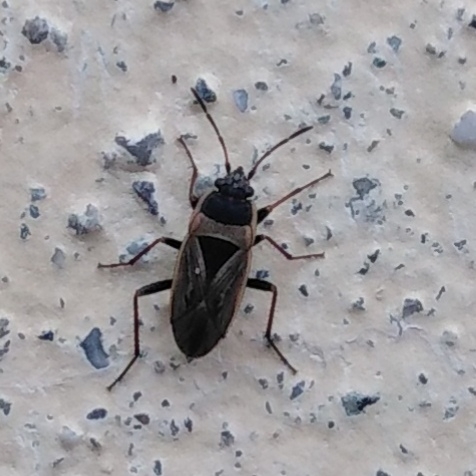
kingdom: Animalia
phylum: Arthropoda
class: Insecta
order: Hemiptera
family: Rhyparochromidae
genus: Xanthochilus
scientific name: Xanthochilus quadratus
